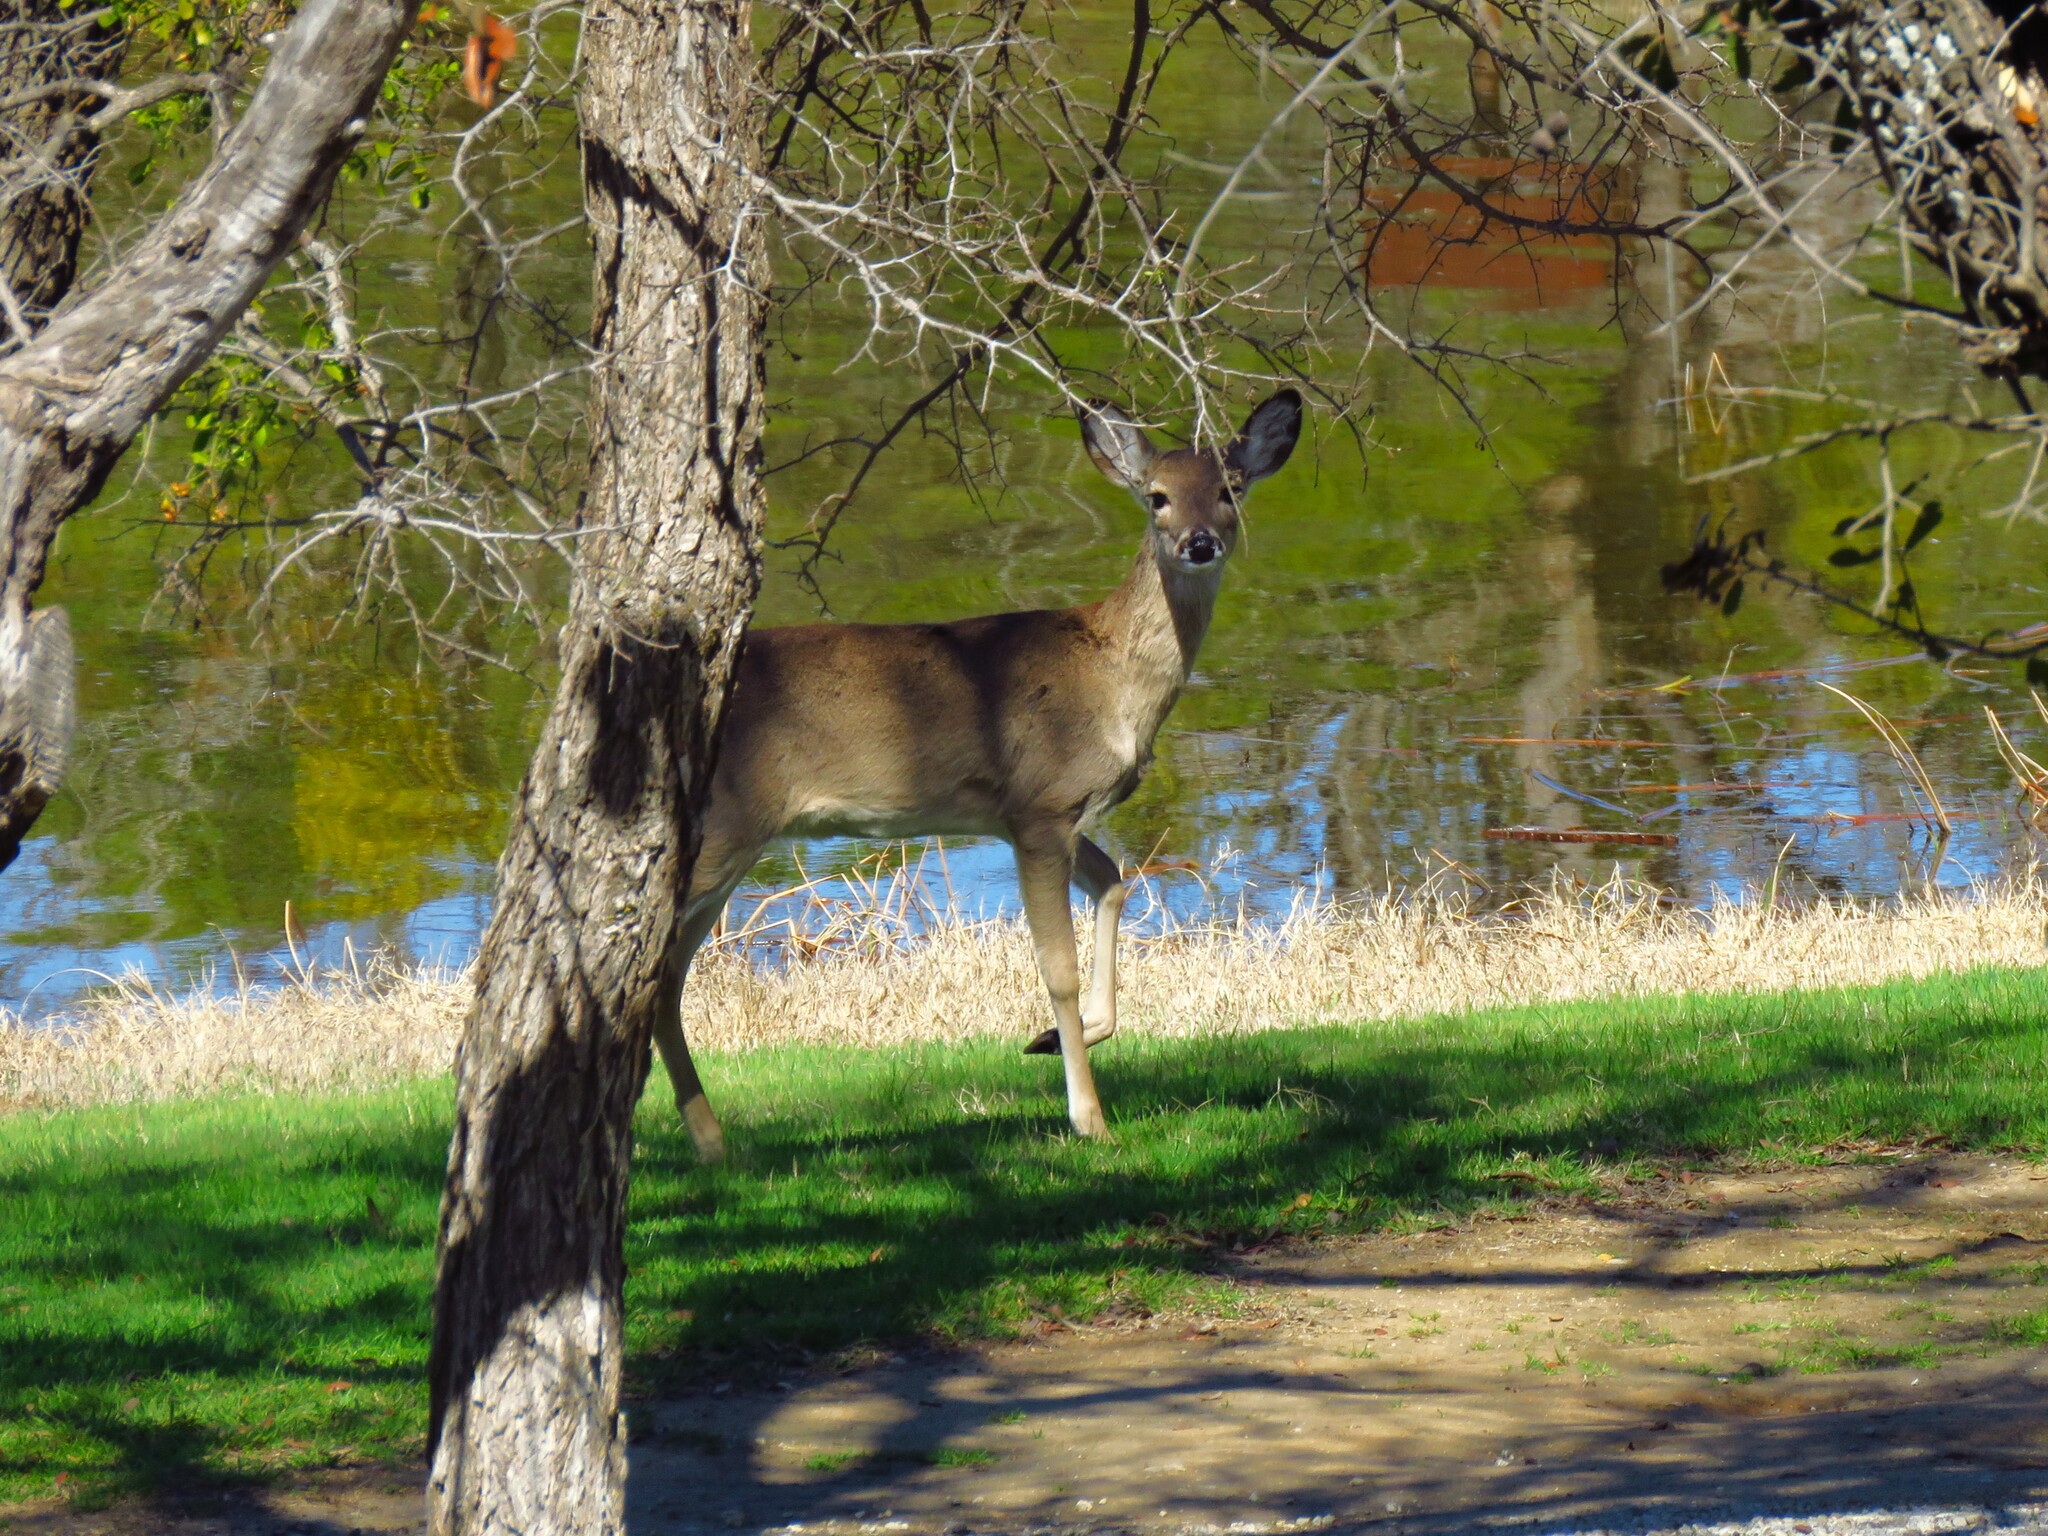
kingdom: Animalia
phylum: Chordata
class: Mammalia
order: Artiodactyla
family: Cervidae
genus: Odocoileus
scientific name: Odocoileus virginianus
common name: White-tailed deer
